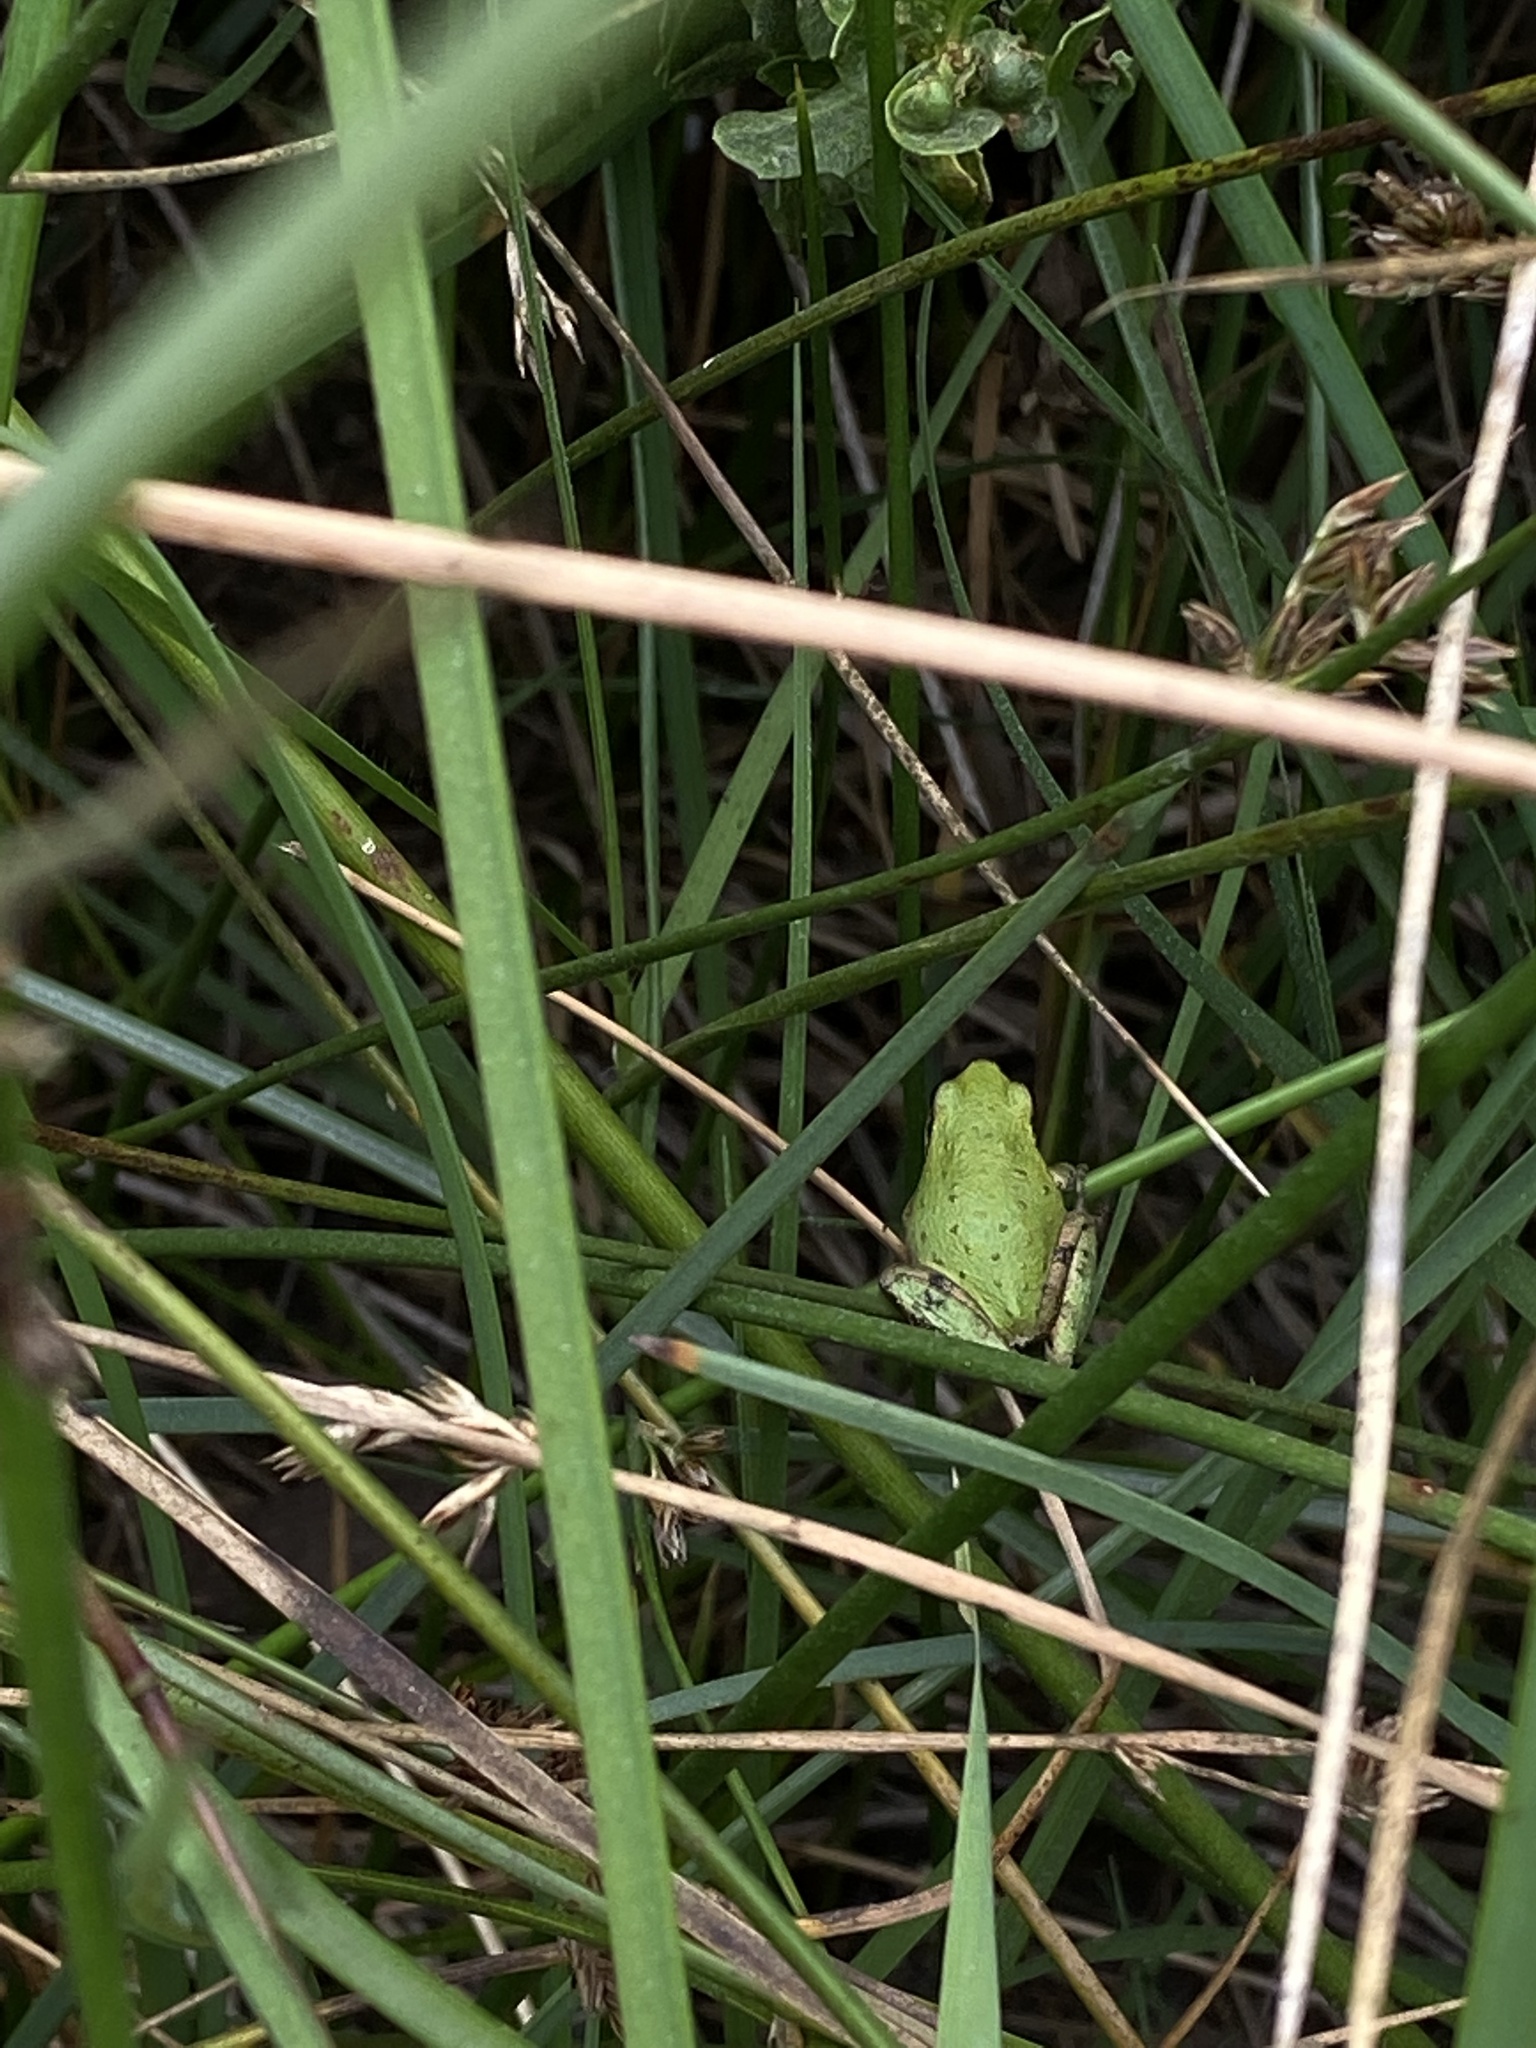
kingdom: Animalia
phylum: Chordata
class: Amphibia
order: Anura
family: Hylidae
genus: Pseudacris
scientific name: Pseudacris regilla
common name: Pacific chorus frog
